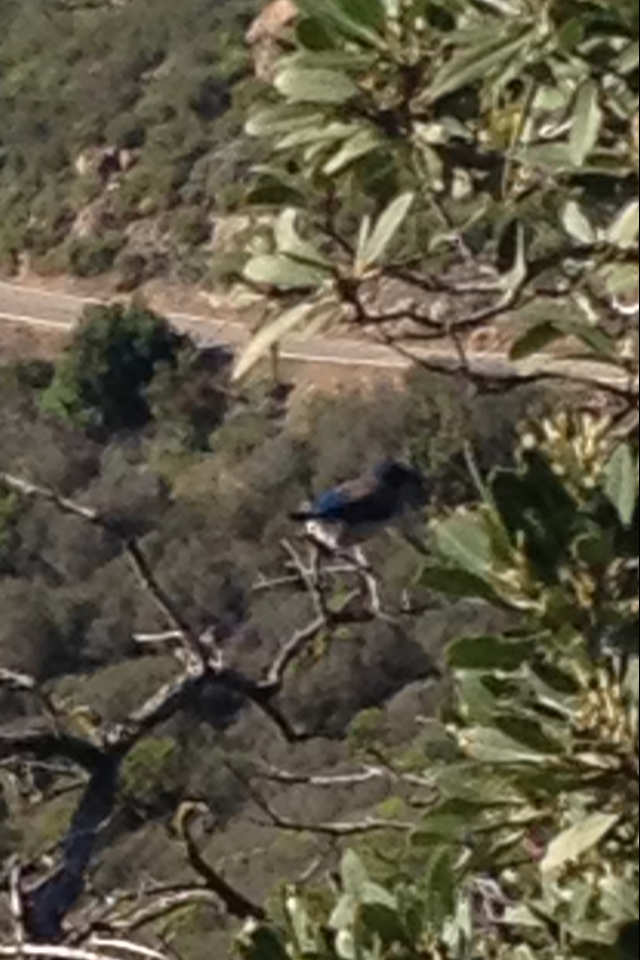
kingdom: Animalia
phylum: Chordata
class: Aves
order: Passeriformes
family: Corvidae
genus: Aphelocoma
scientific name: Aphelocoma californica
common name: California scrub-jay
